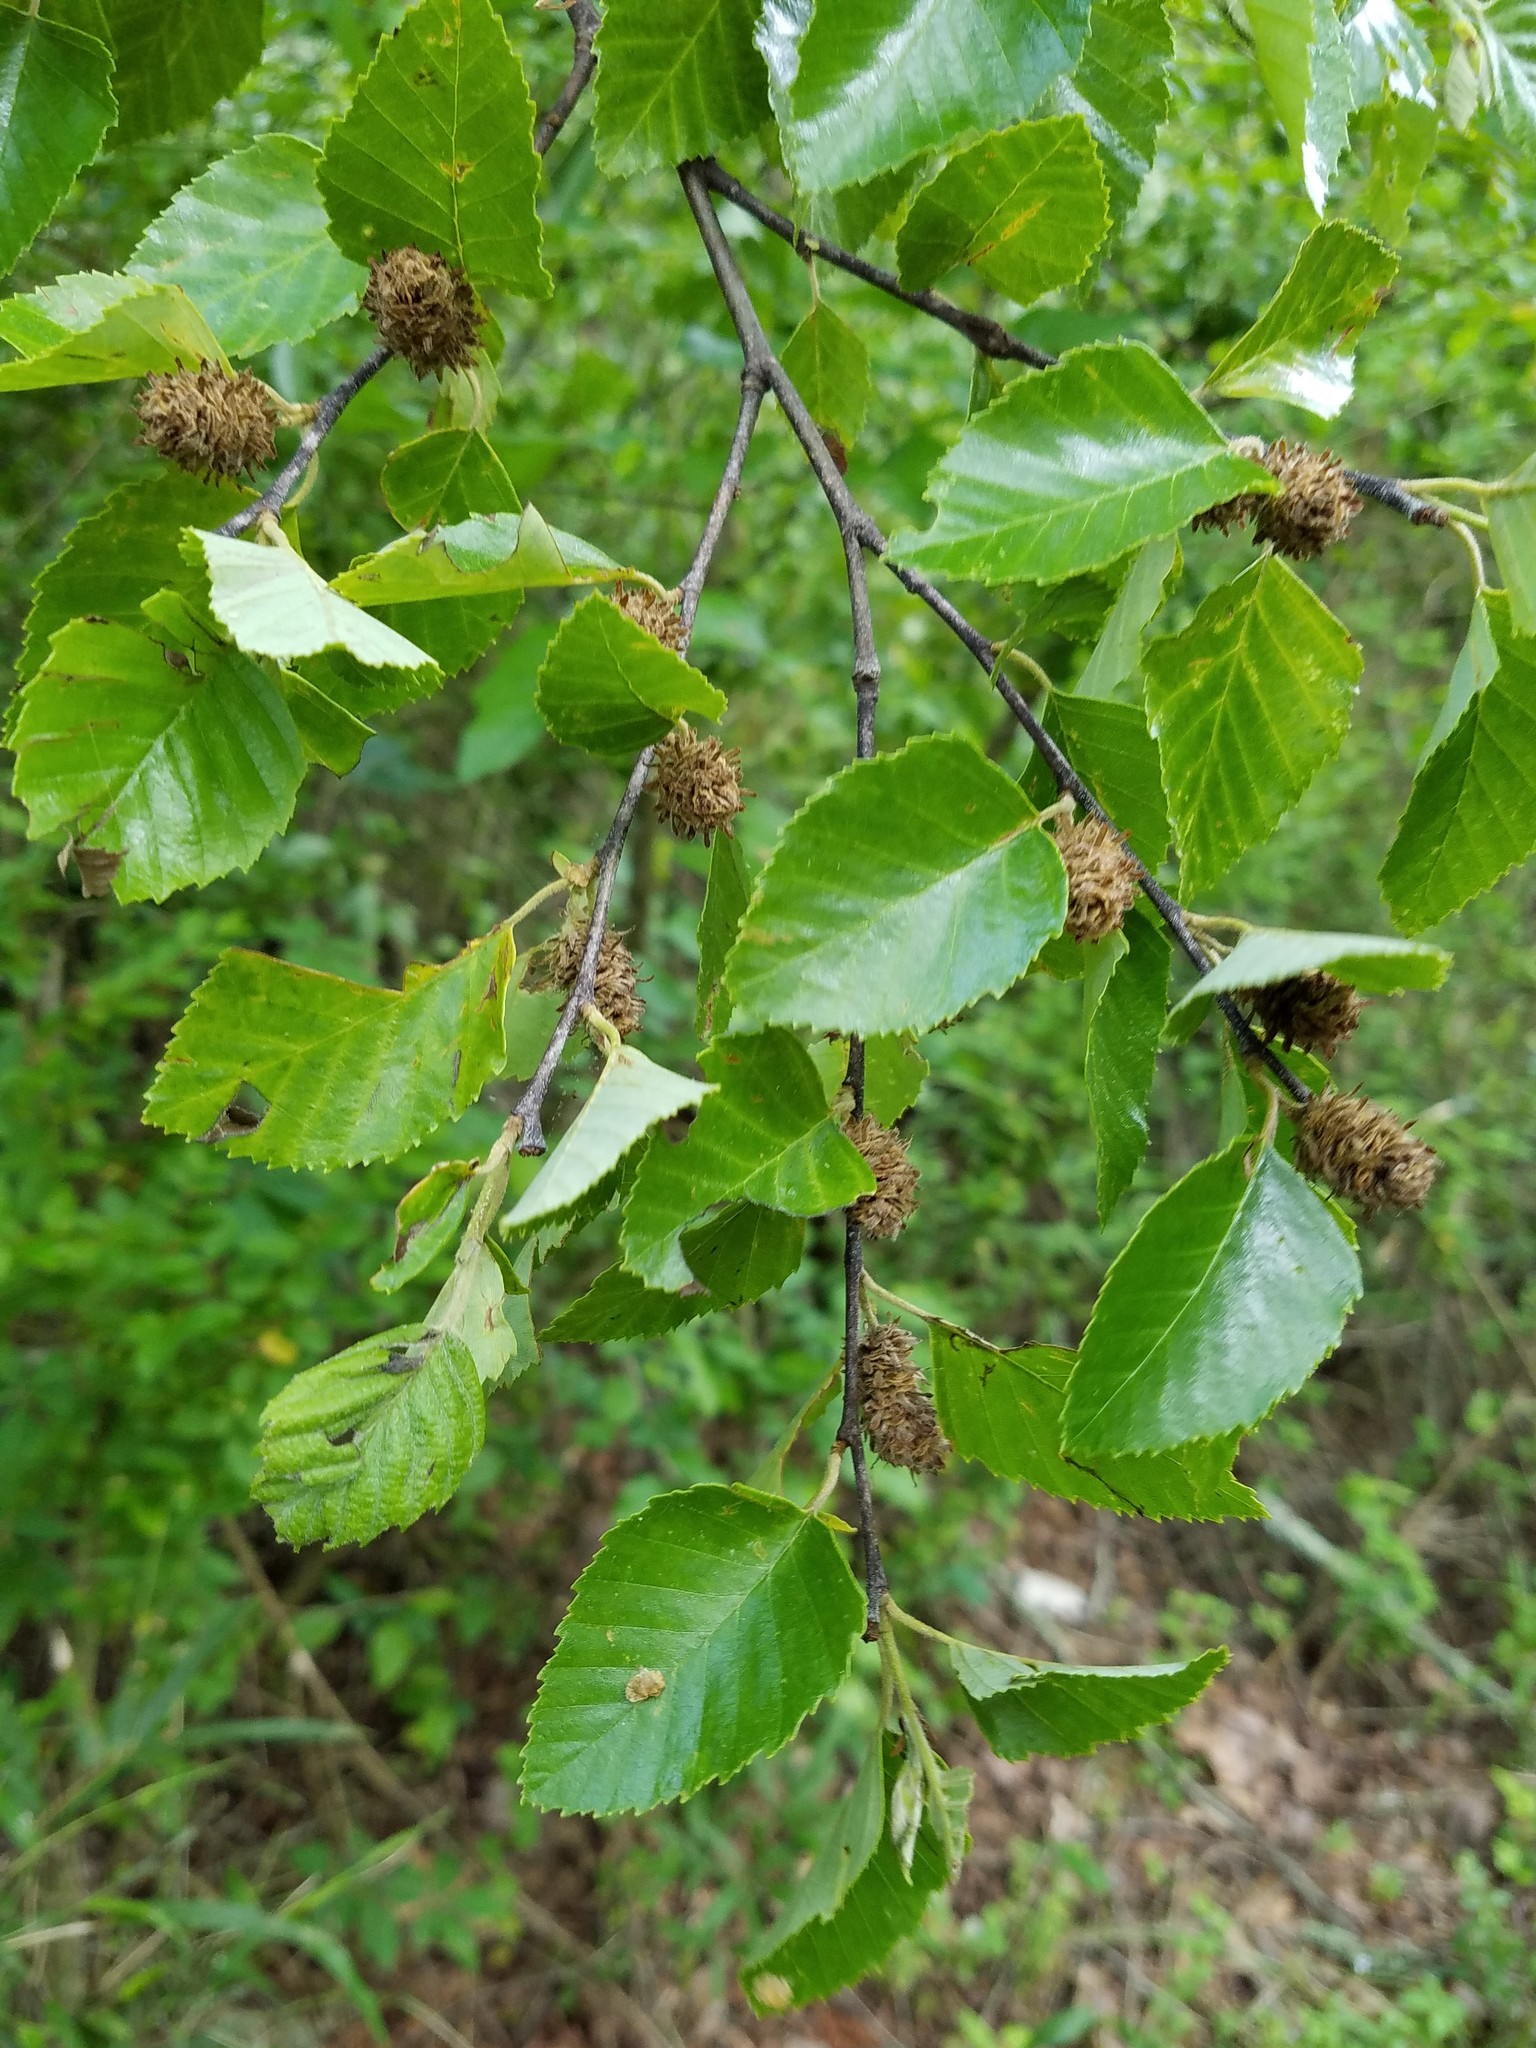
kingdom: Plantae
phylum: Tracheophyta
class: Magnoliopsida
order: Fagales
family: Betulaceae
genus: Betula
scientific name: Betula nigra
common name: Black birch
